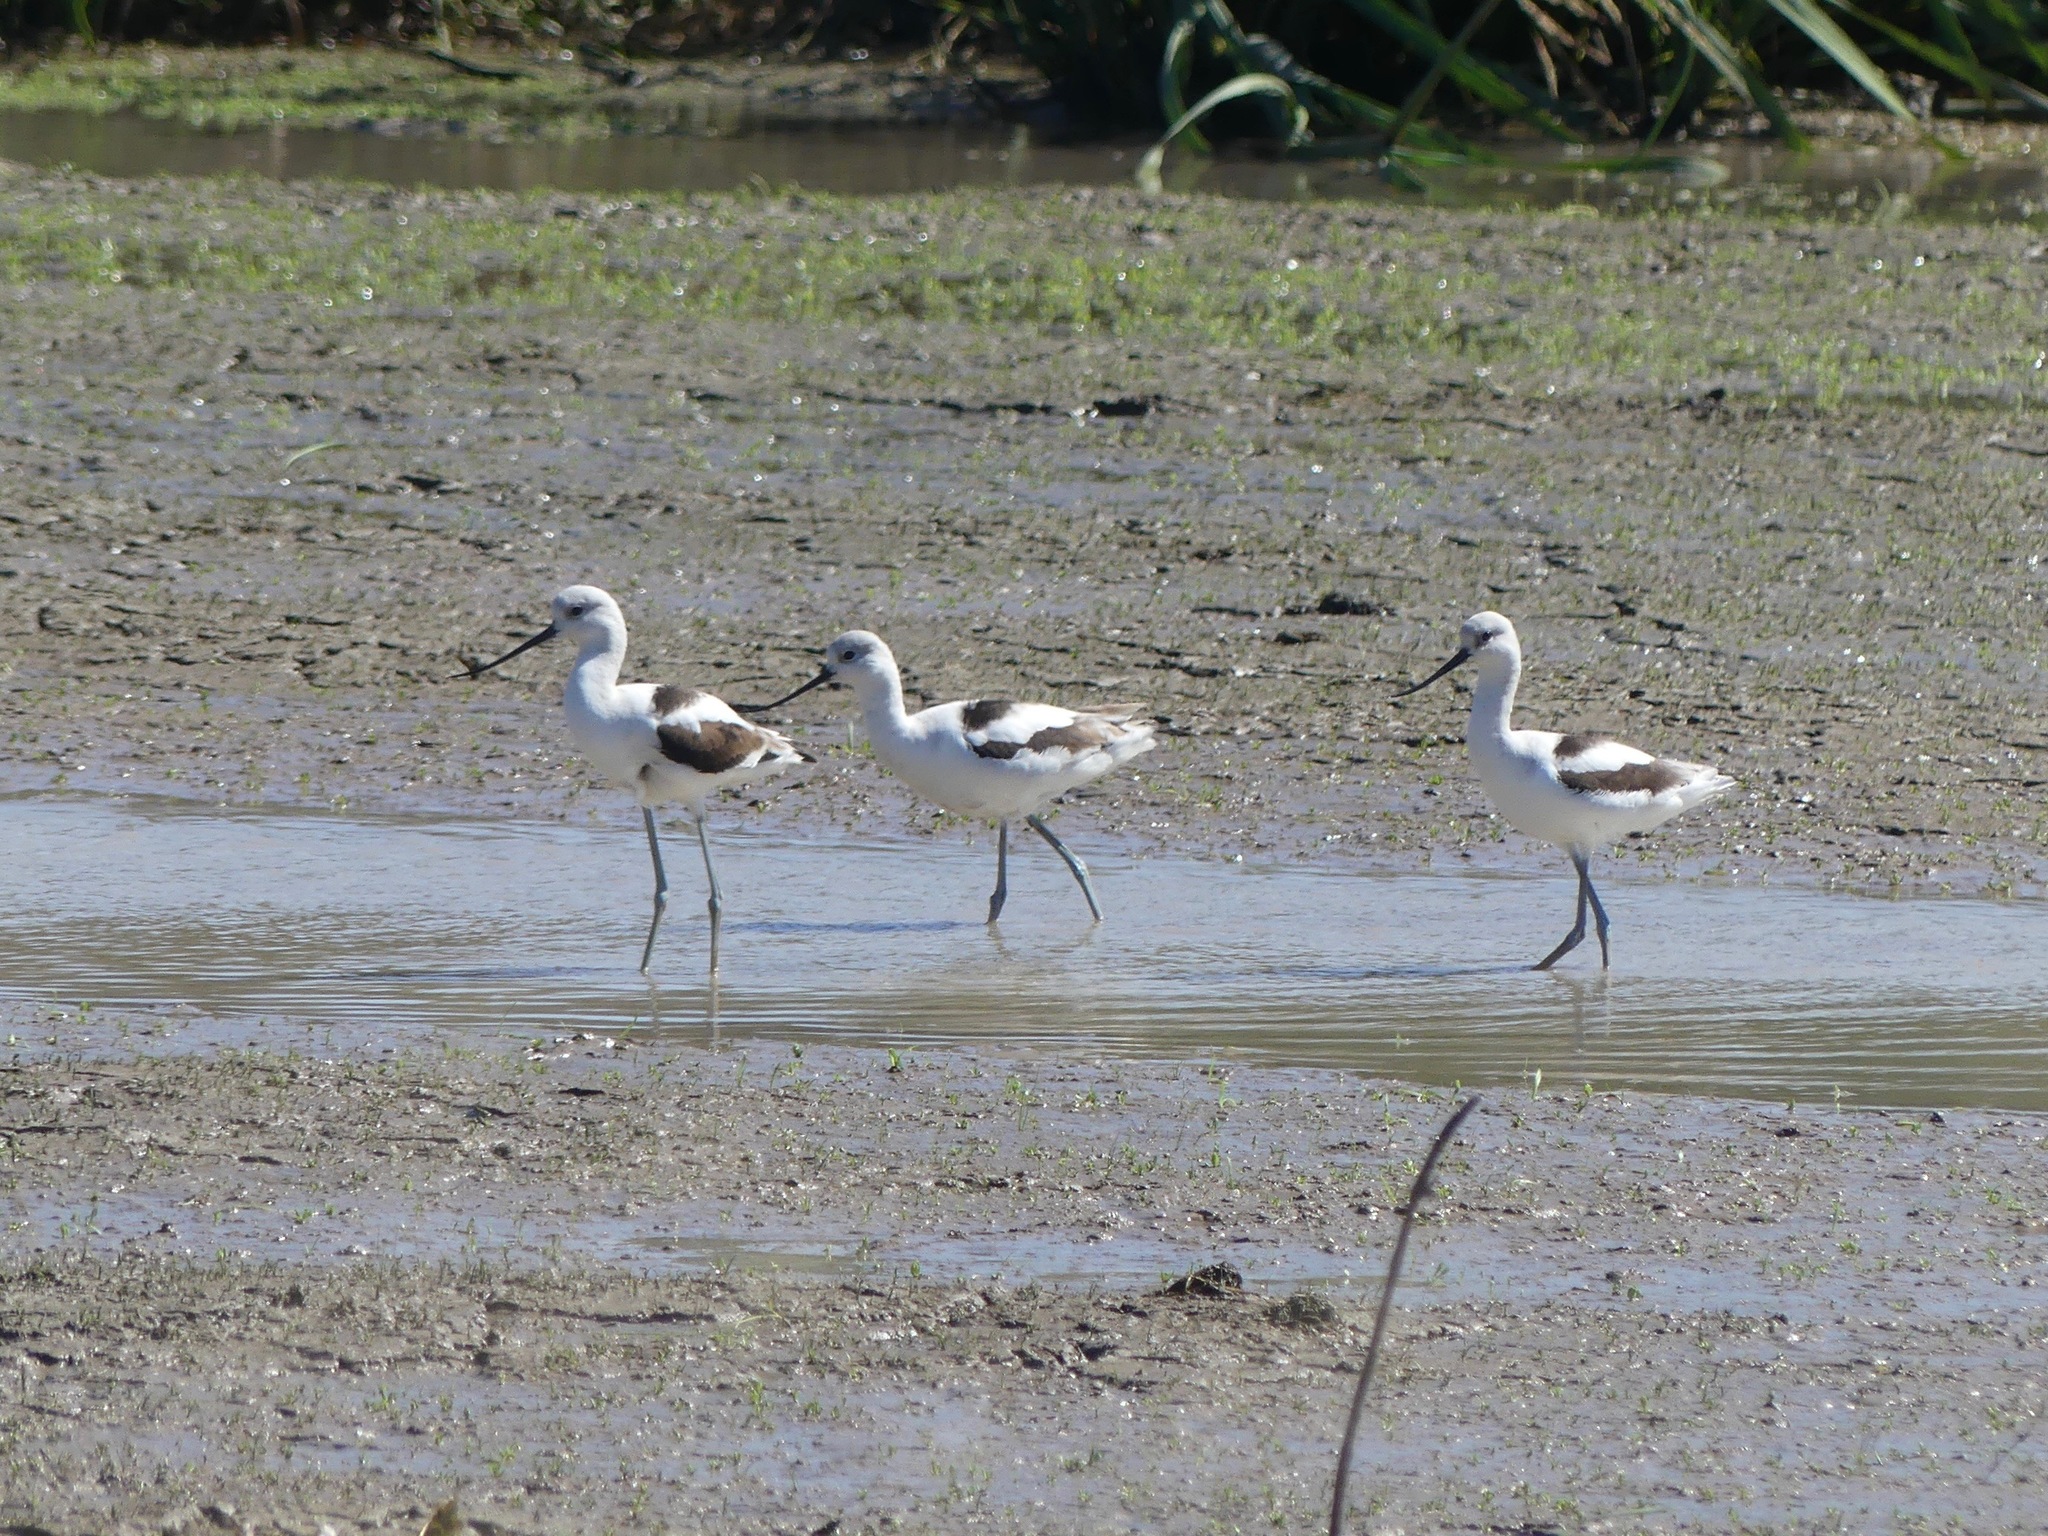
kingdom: Animalia
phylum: Chordata
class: Aves
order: Charadriiformes
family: Recurvirostridae
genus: Recurvirostra
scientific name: Recurvirostra americana
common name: American avocet
